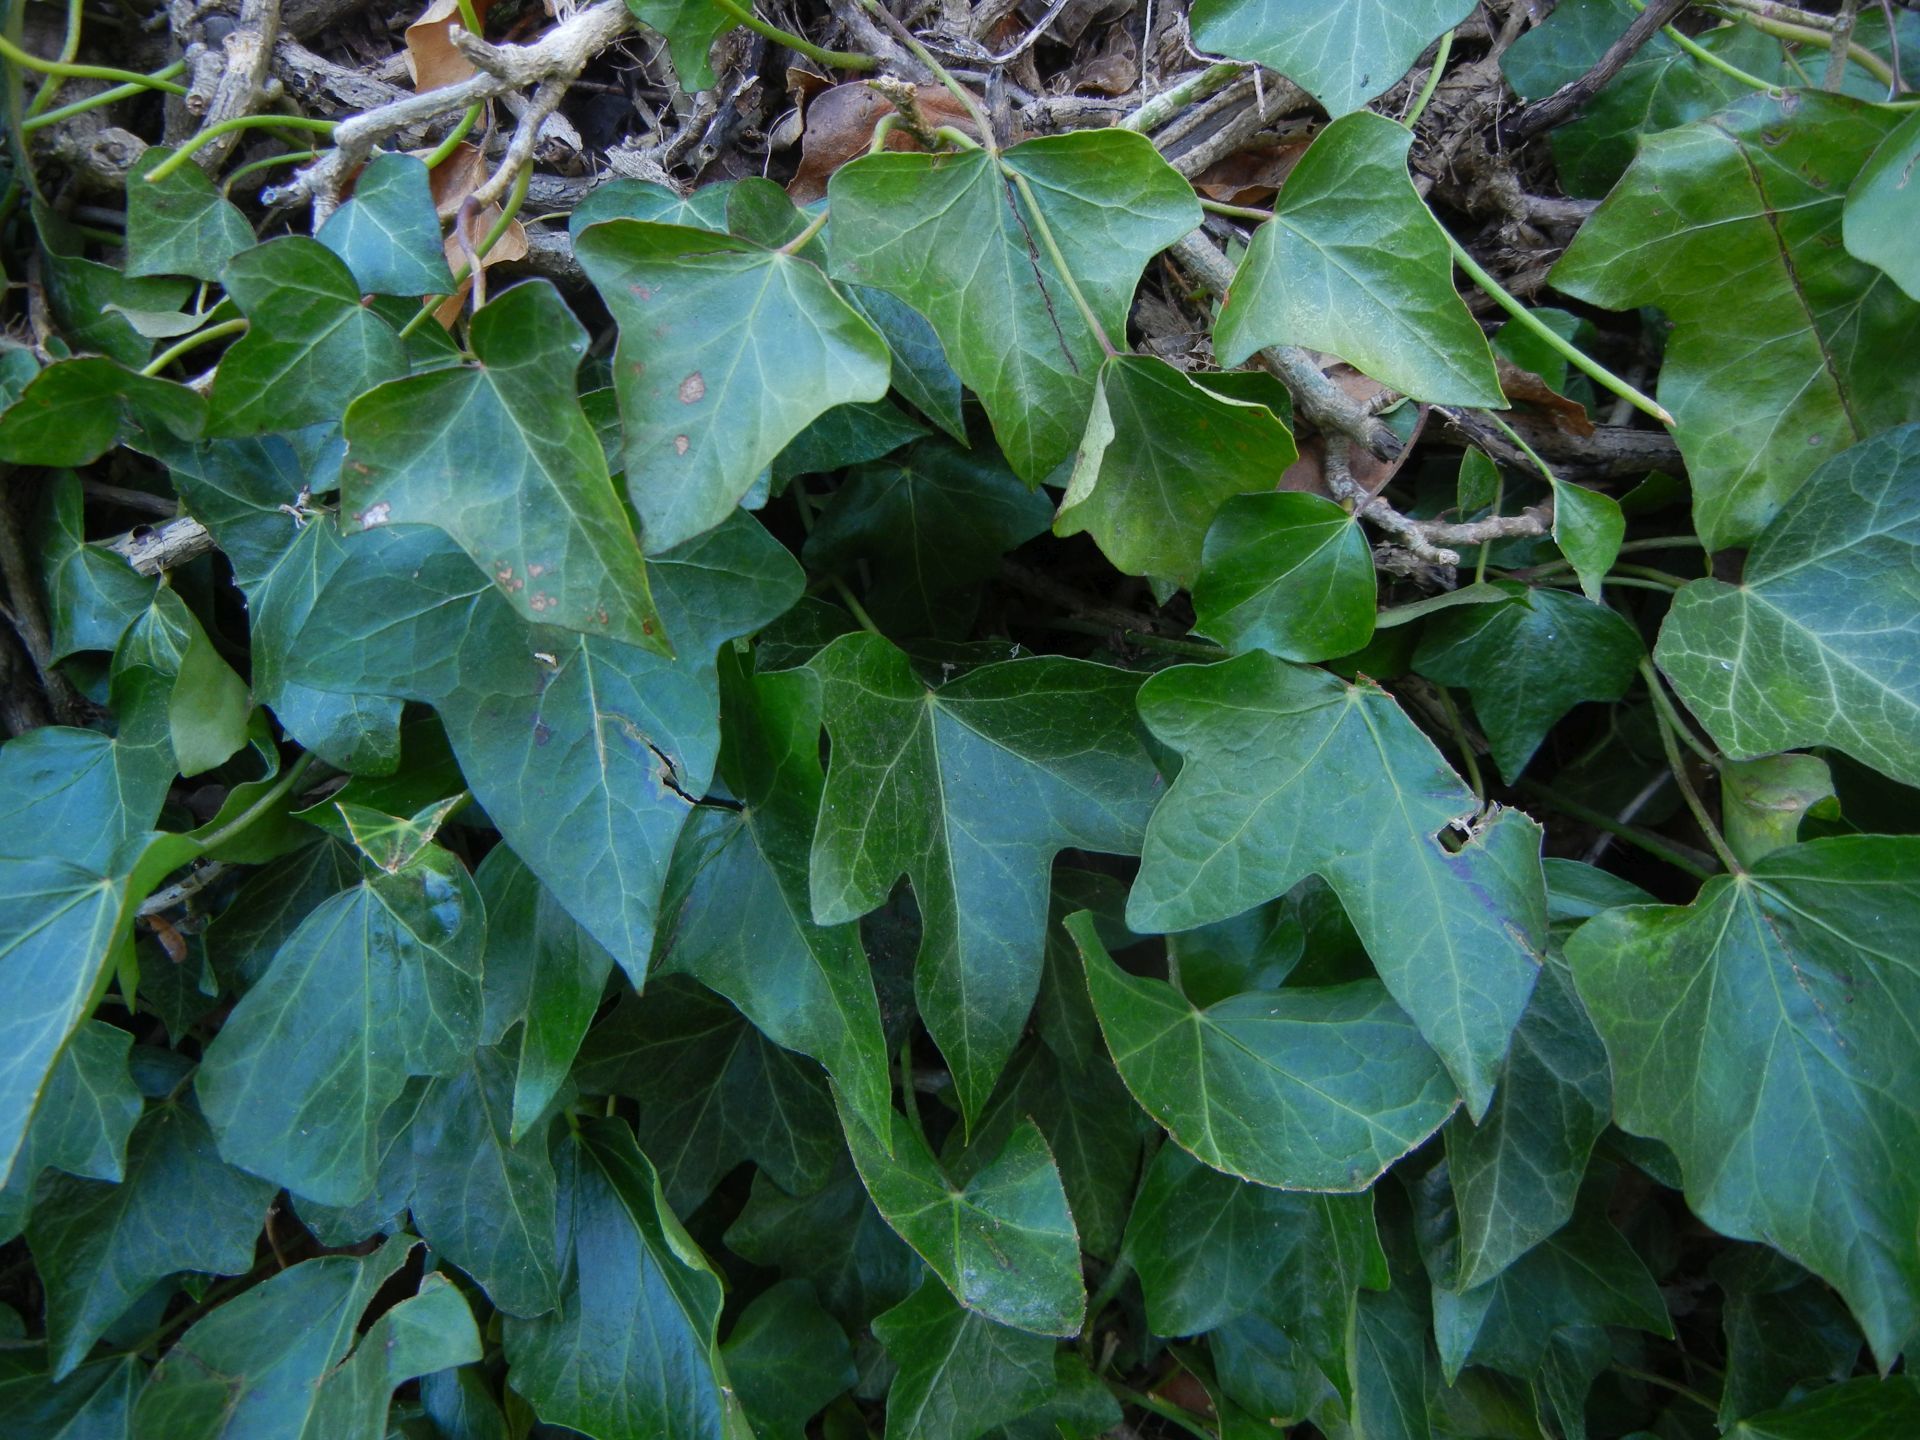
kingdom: Plantae
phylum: Tracheophyta
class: Magnoliopsida
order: Apiales
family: Araliaceae
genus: Hedera
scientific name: Hedera helix
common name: Ivy
